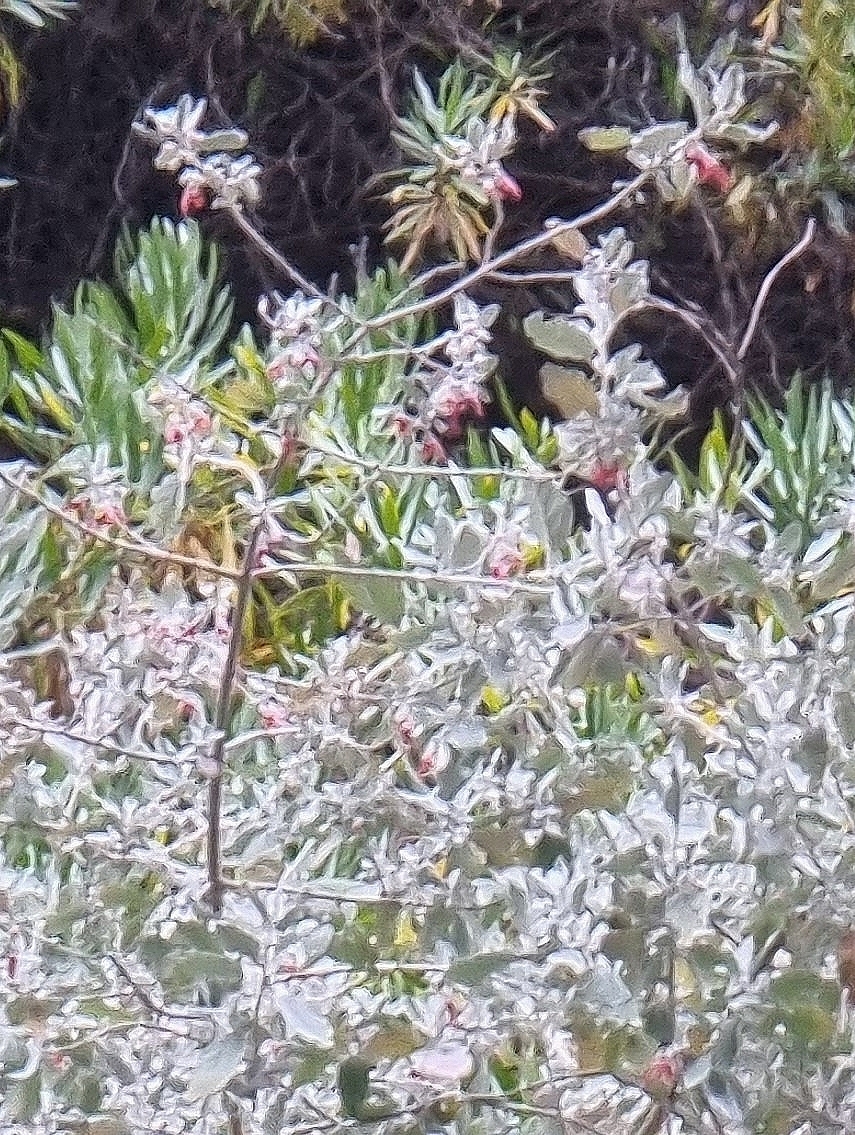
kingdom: Plantae
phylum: Tracheophyta
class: Magnoliopsida
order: Lamiales
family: Lamiaceae
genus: Teucrium
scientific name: Teucrium heterophyllum
